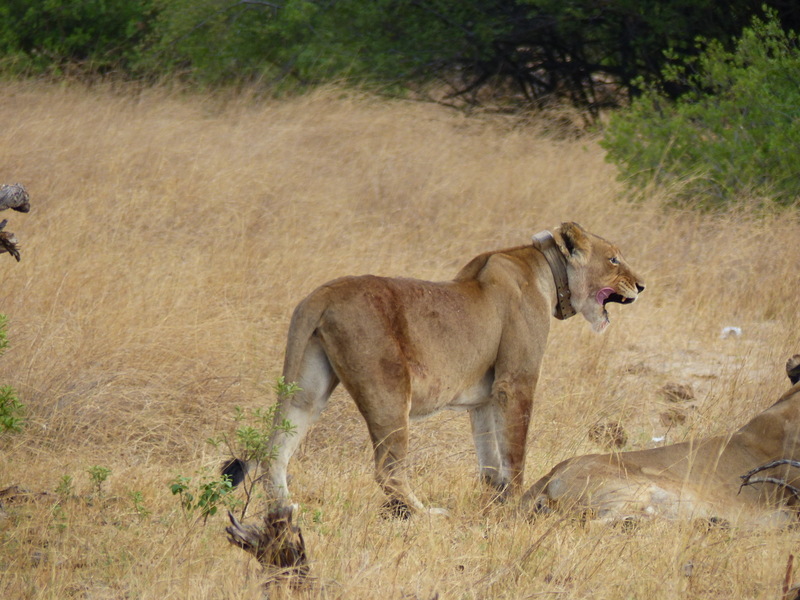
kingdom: Animalia
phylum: Chordata
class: Mammalia
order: Carnivora
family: Felidae
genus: Panthera
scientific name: Panthera leo
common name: Lion
